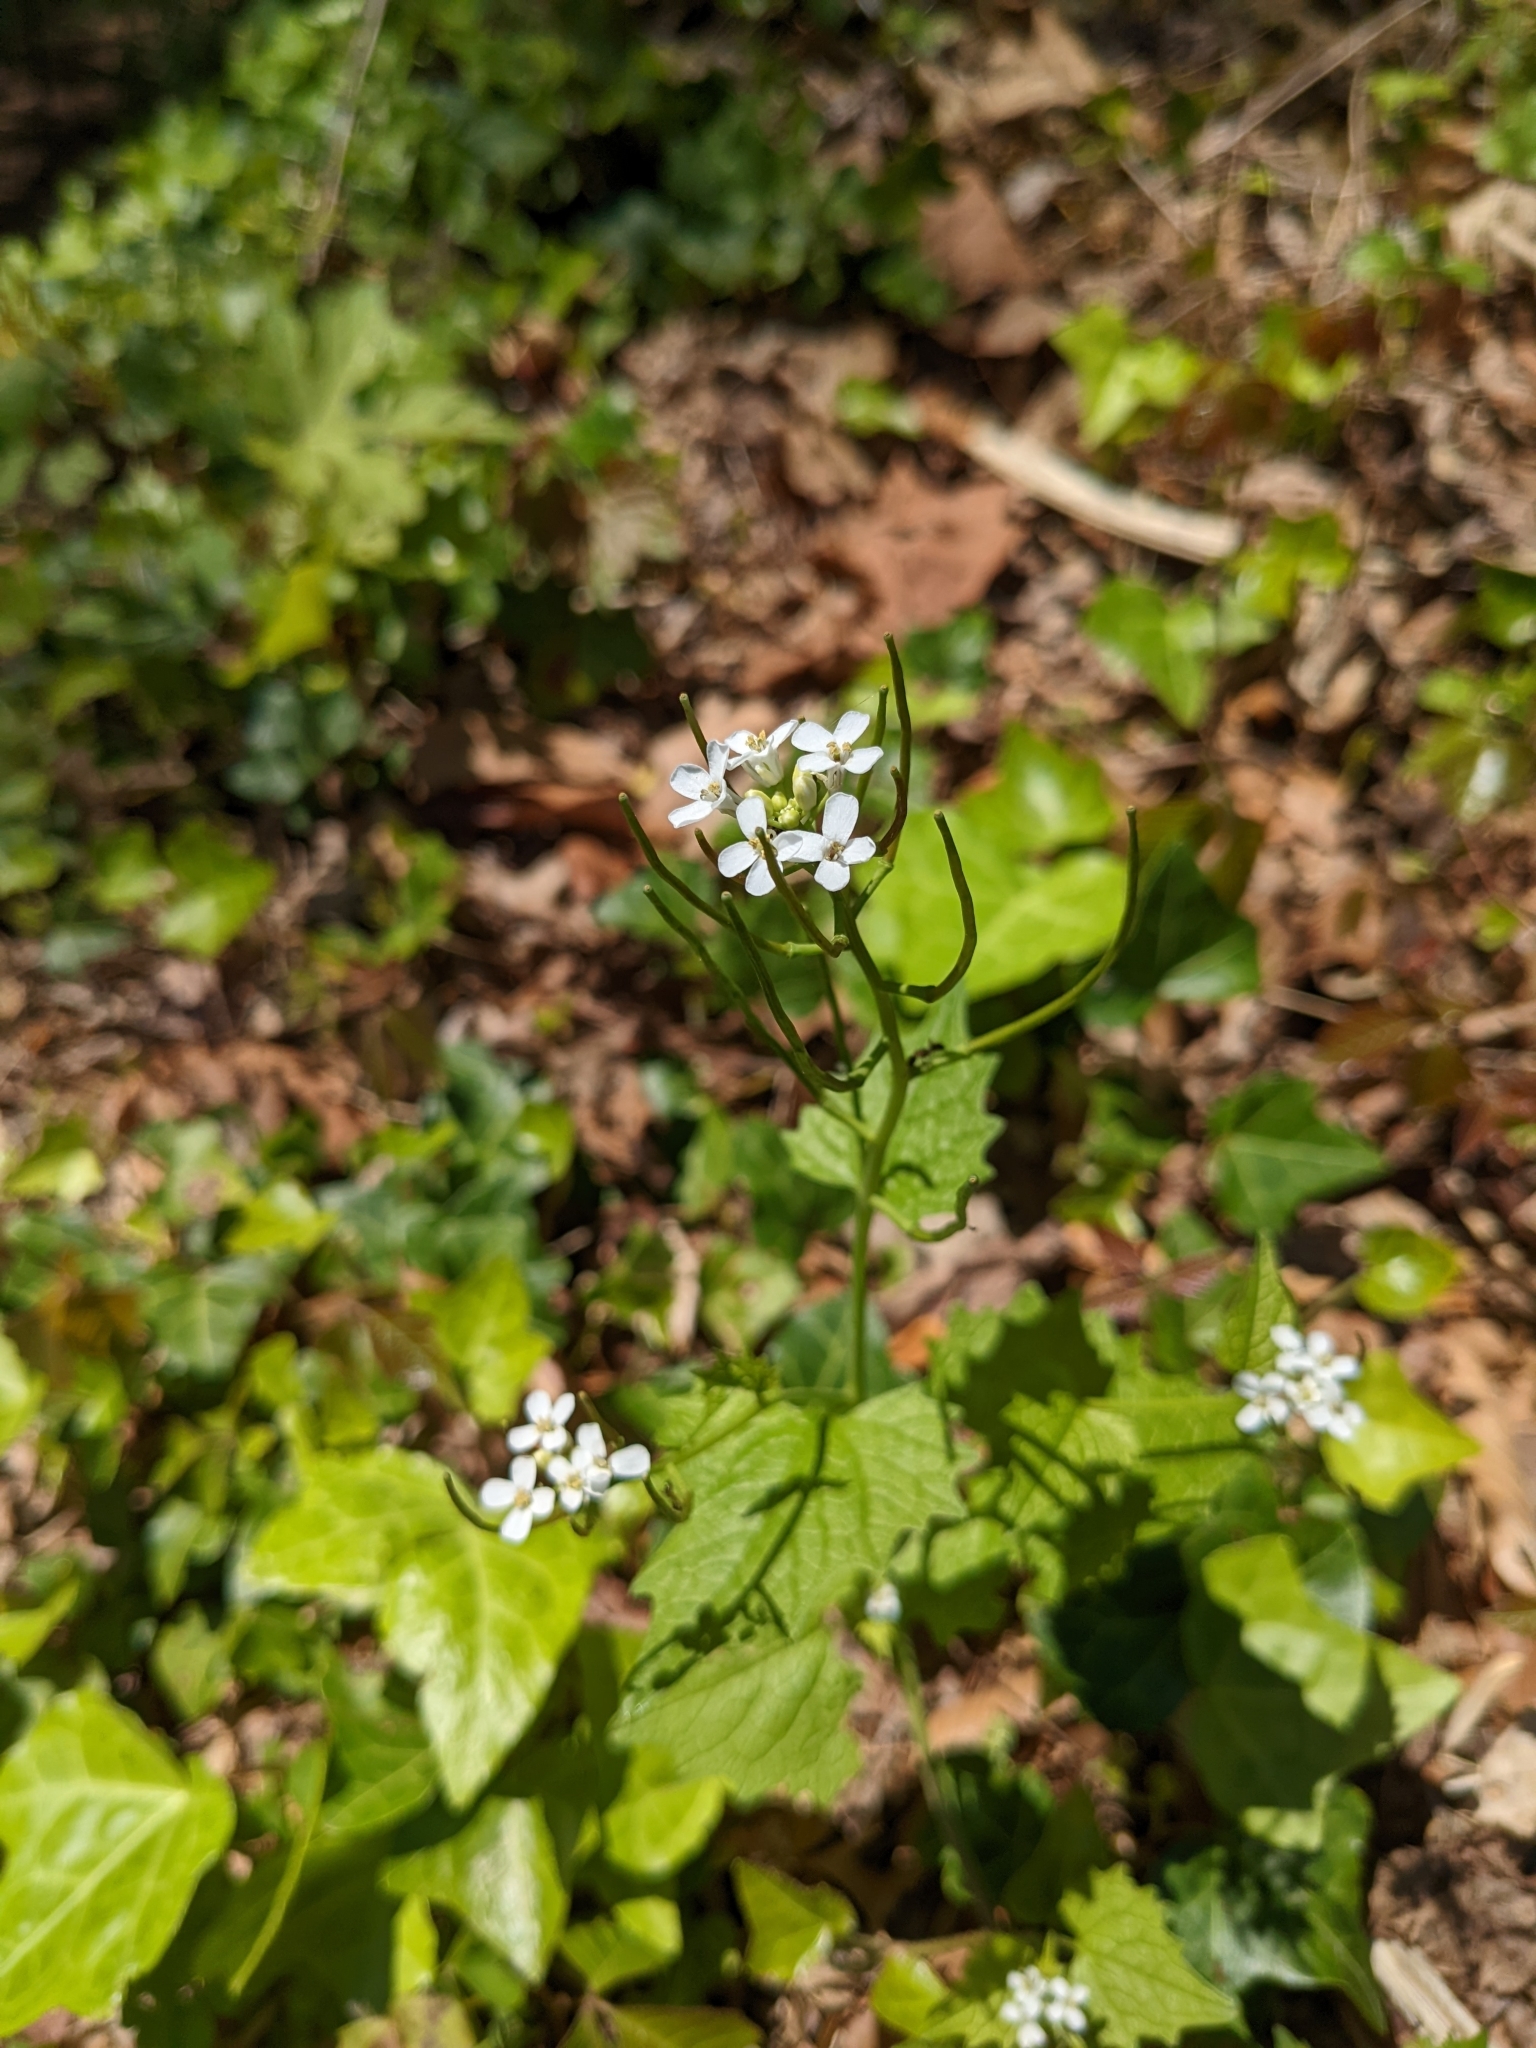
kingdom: Plantae
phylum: Tracheophyta
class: Magnoliopsida
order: Brassicales
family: Brassicaceae
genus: Alliaria
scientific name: Alliaria petiolata
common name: Garlic mustard
